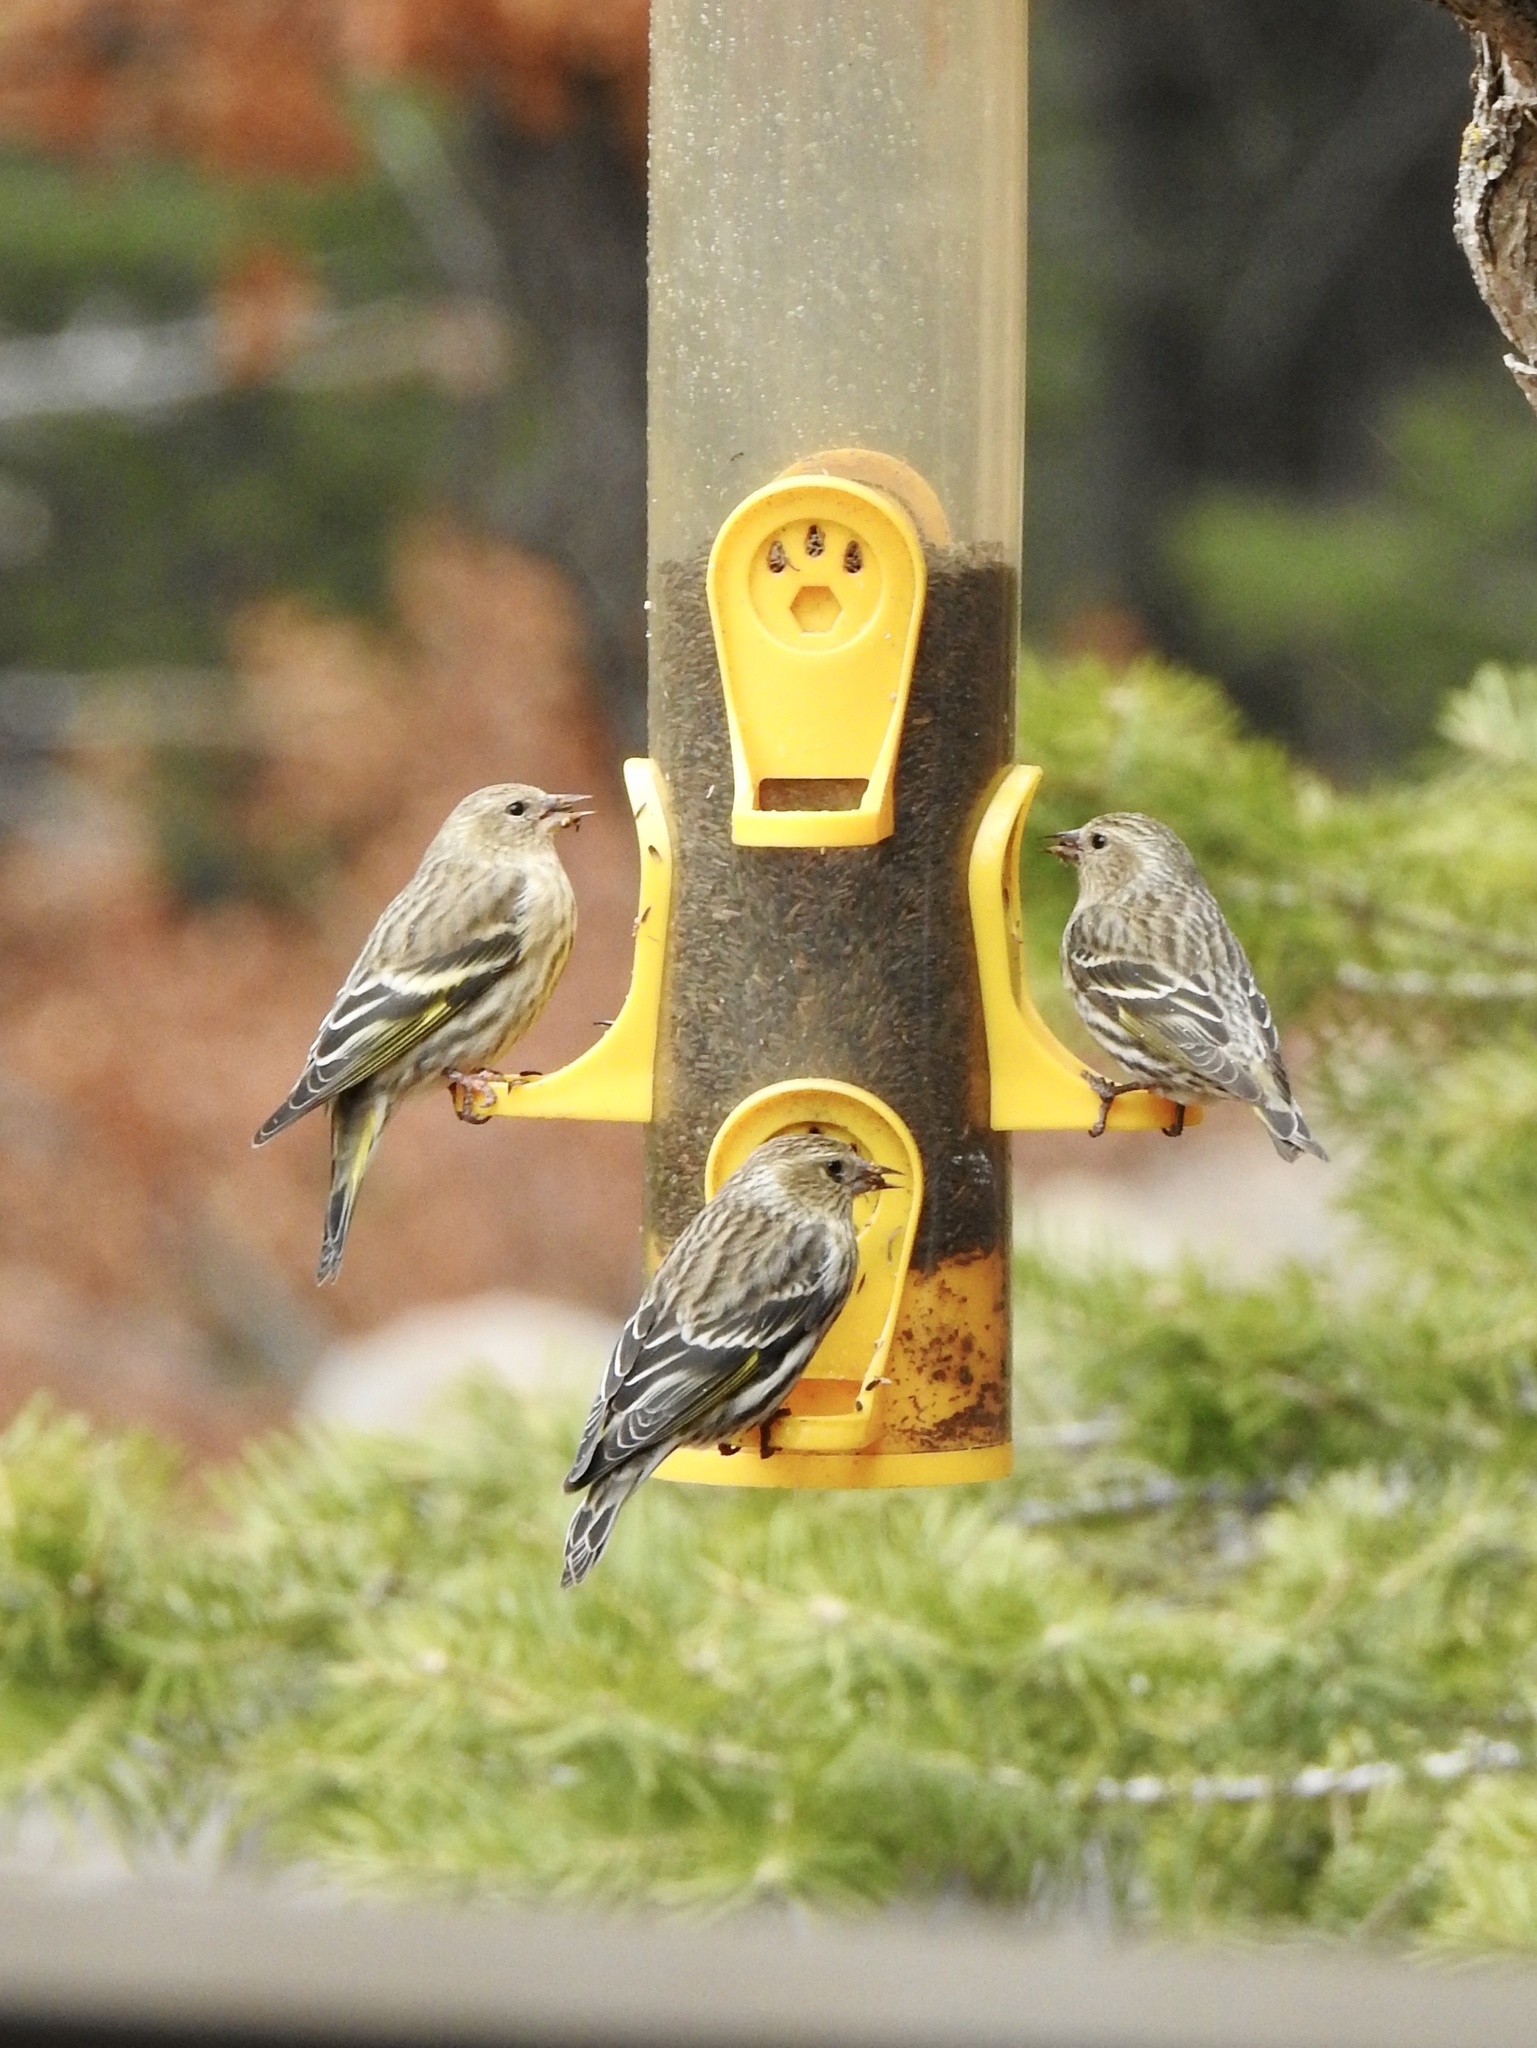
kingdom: Animalia
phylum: Chordata
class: Aves
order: Passeriformes
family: Fringillidae
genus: Spinus
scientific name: Spinus pinus
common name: Pine siskin
